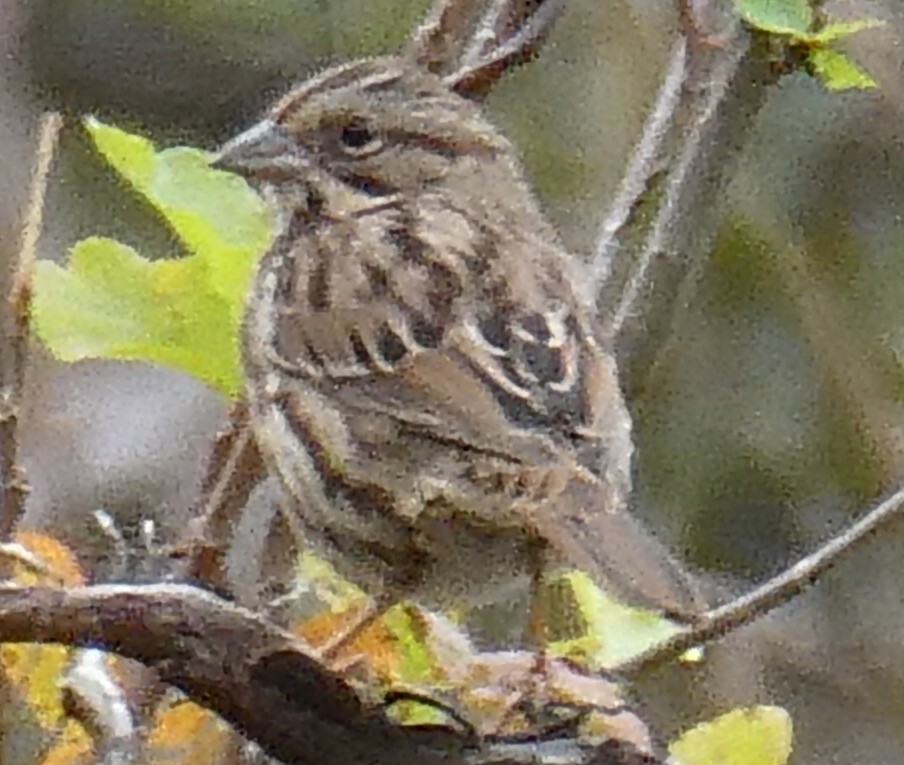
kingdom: Animalia
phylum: Chordata
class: Aves
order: Passeriformes
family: Passerellidae
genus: Melospiza
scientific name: Melospiza melodia
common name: Song sparrow
